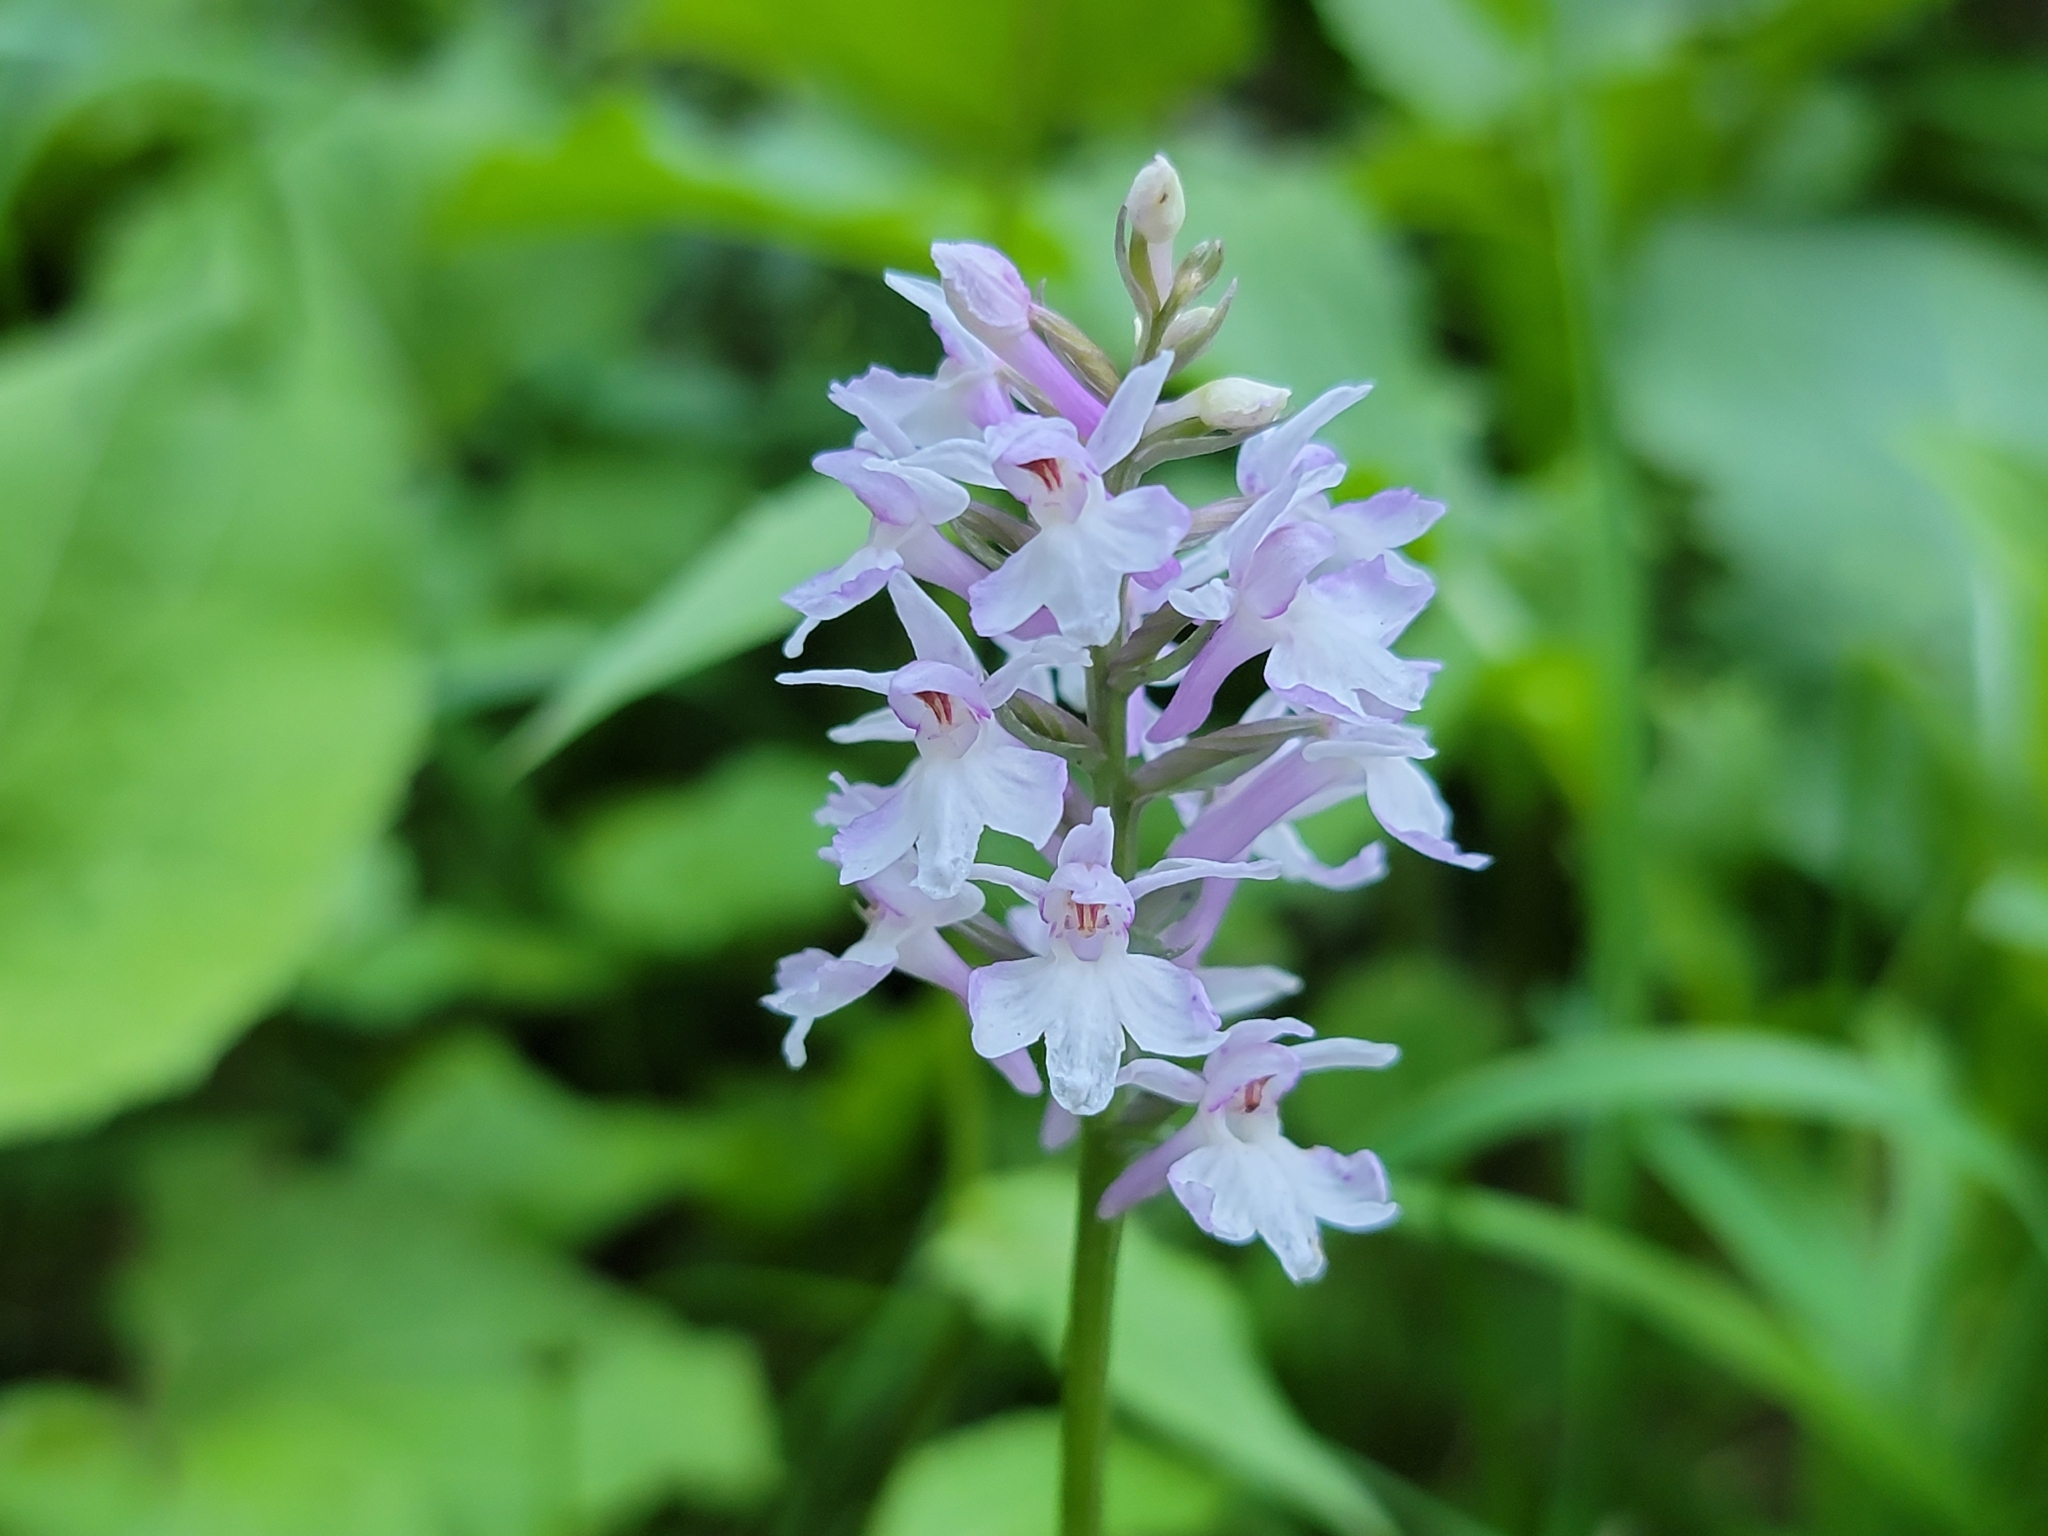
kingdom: Plantae
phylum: Tracheophyta
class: Liliopsida
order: Asparagales
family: Orchidaceae
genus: Dactylorhiza
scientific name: Dactylorhiza maculata
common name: Heath spotted-orchid
